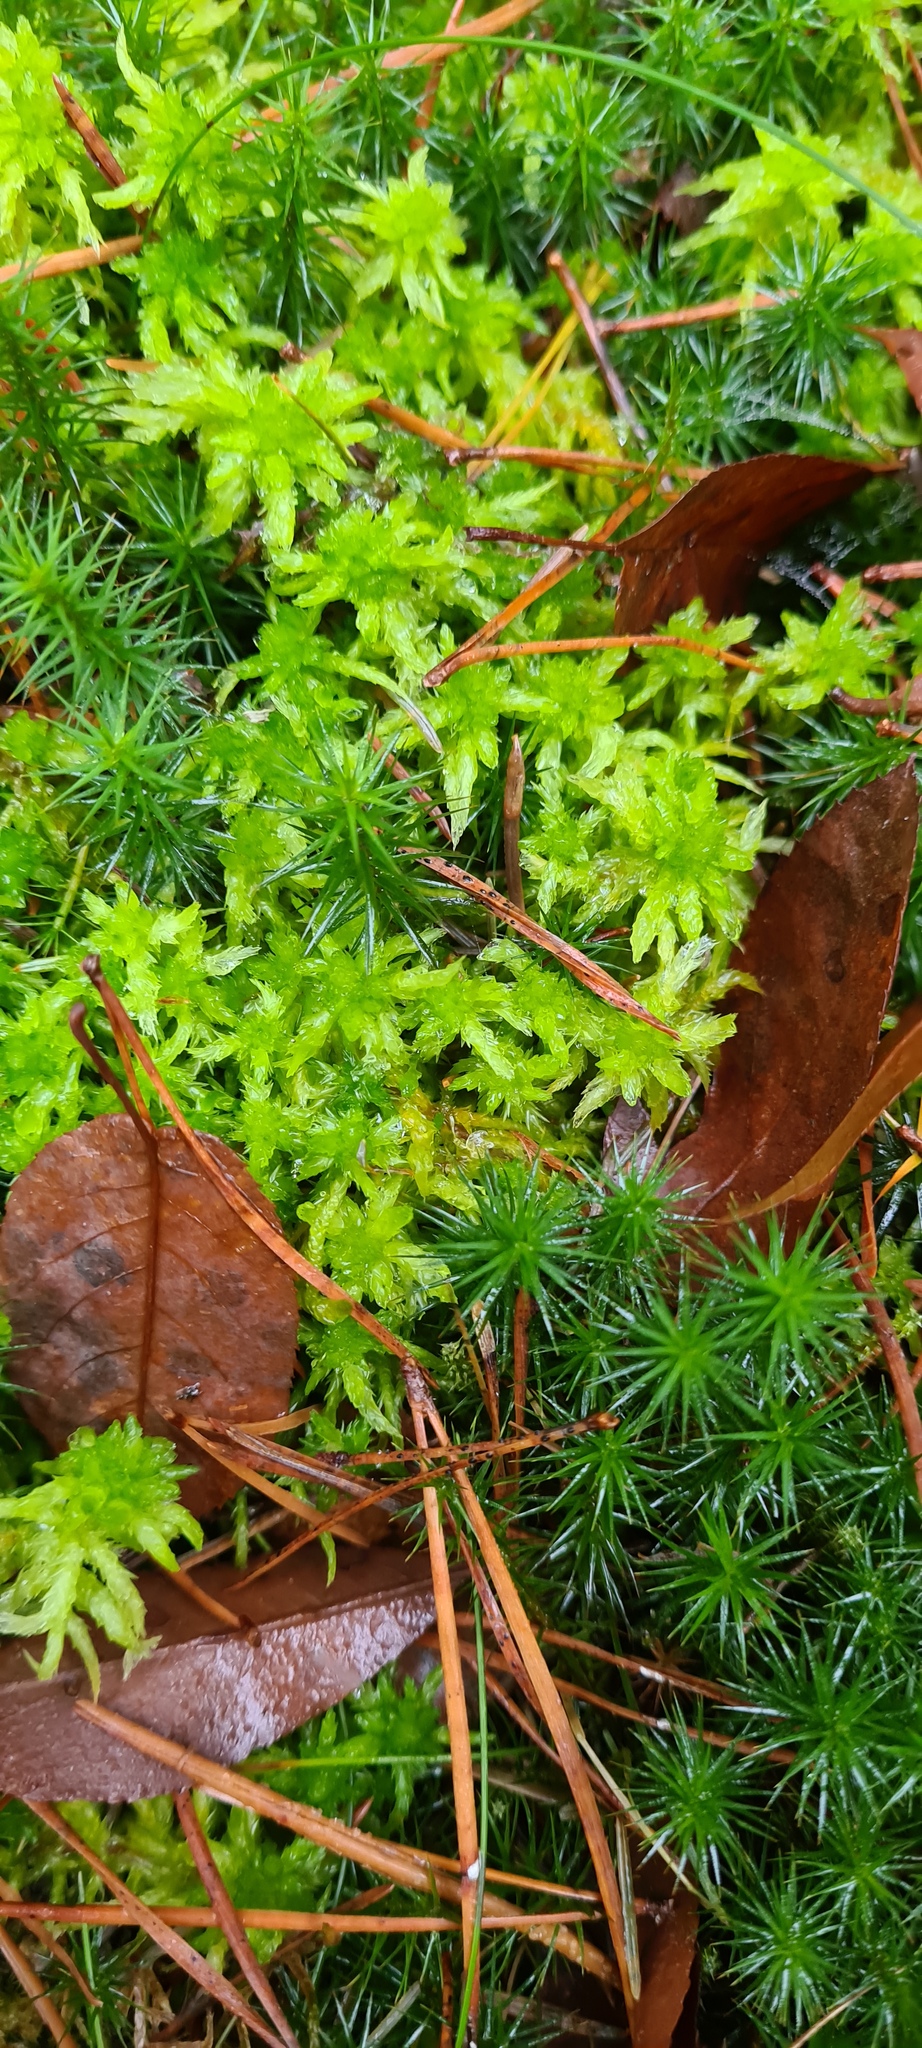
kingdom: Plantae
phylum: Bryophyta
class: Sphagnopsida
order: Sphagnales
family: Sphagnaceae
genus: Sphagnum
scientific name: Sphagnum inundatum
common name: Lesser cow-horn bog-moss
